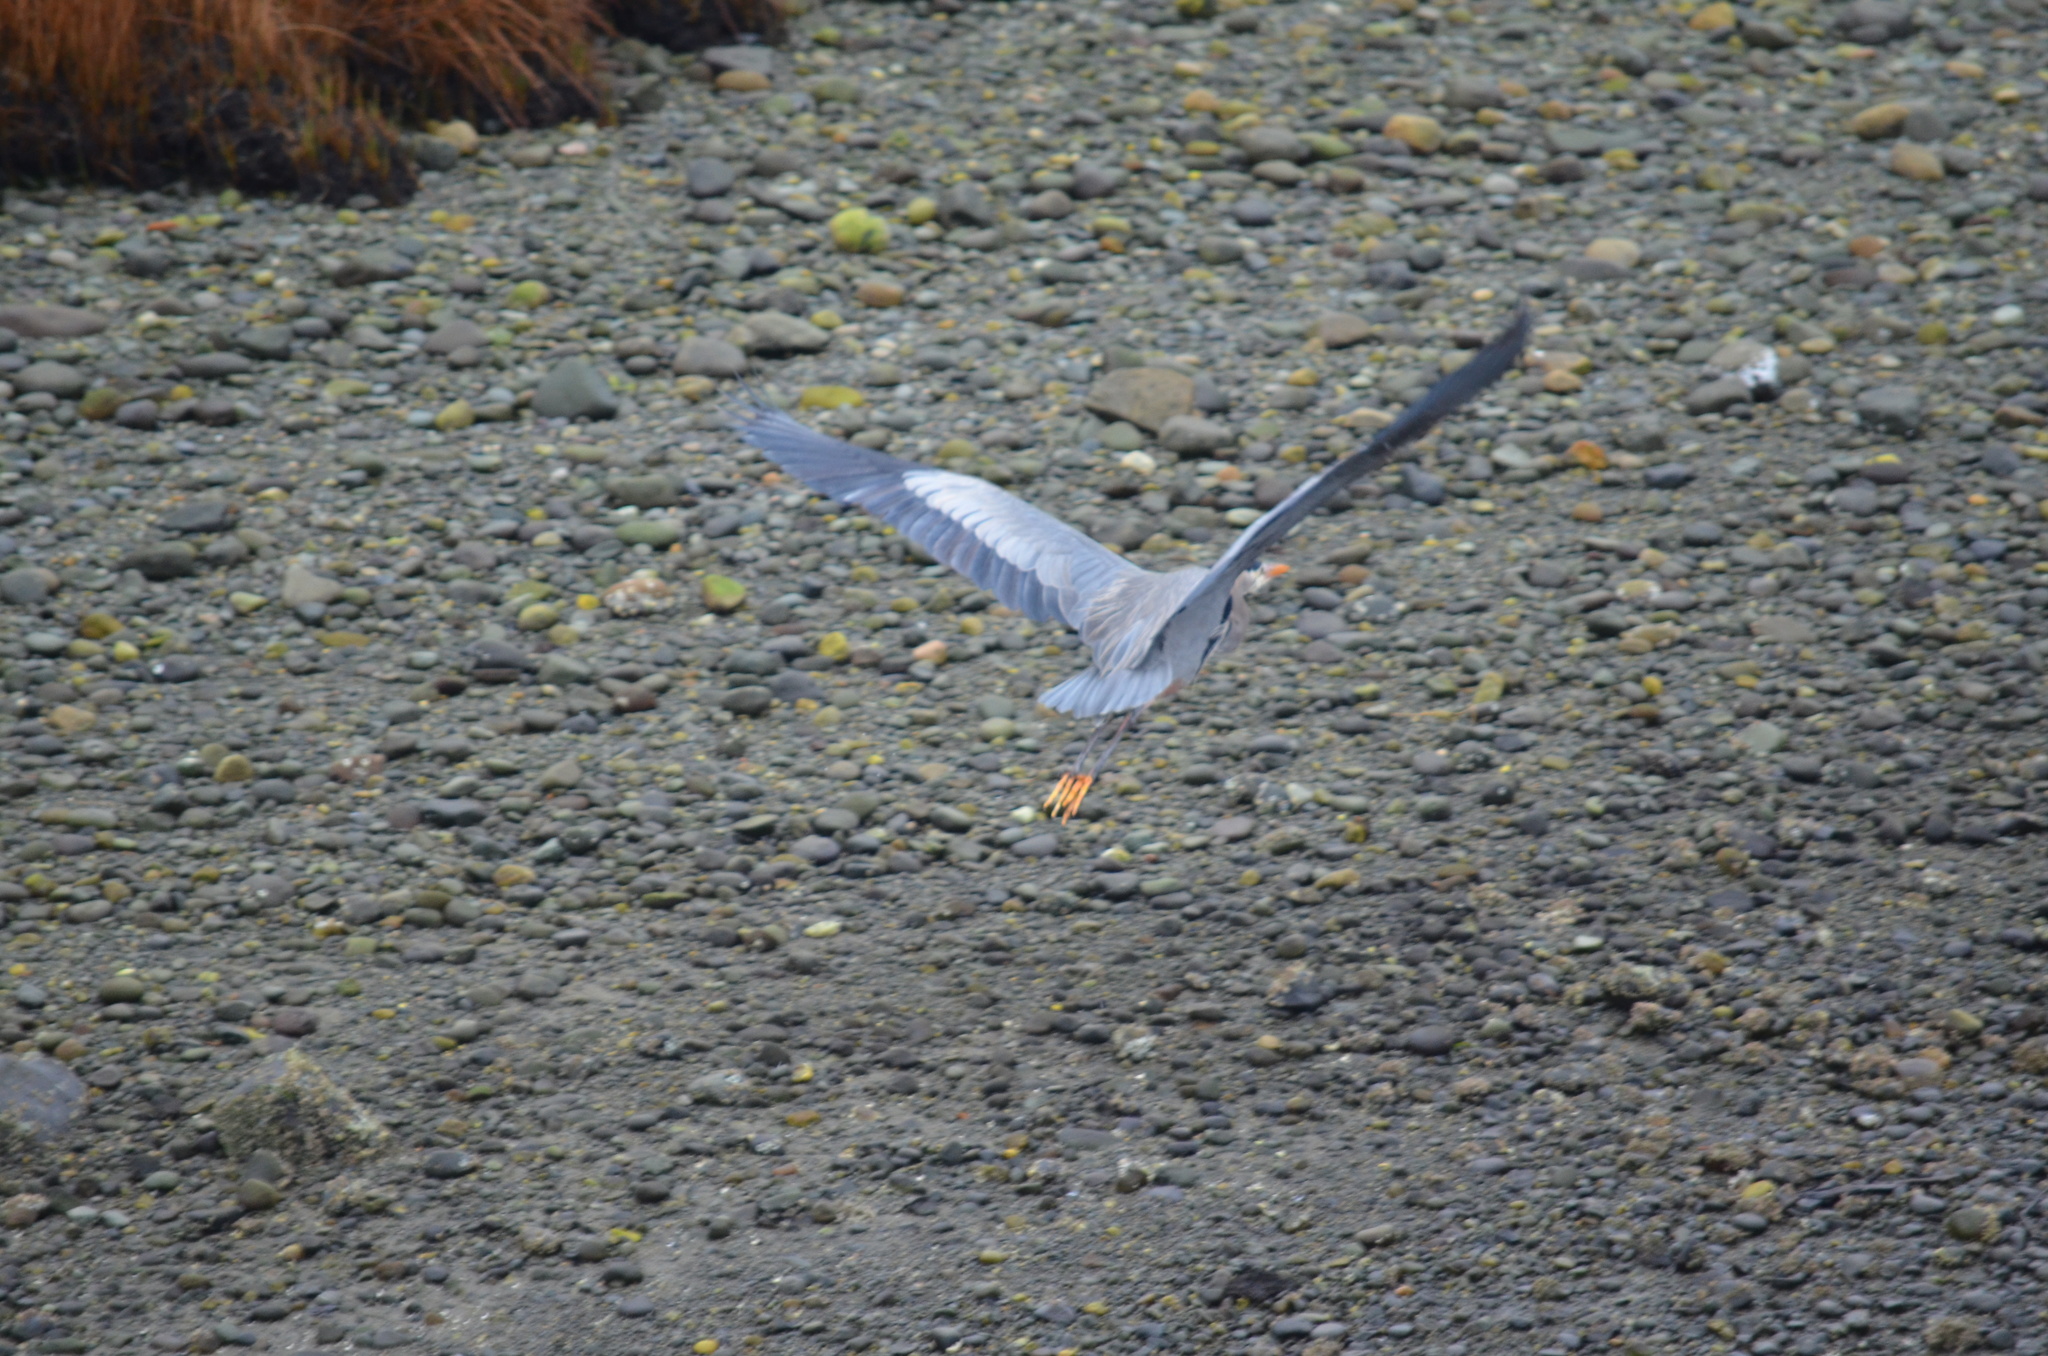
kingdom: Animalia
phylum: Chordata
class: Aves
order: Pelecaniformes
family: Ardeidae
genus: Ardea
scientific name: Ardea herodias
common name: Great blue heron
